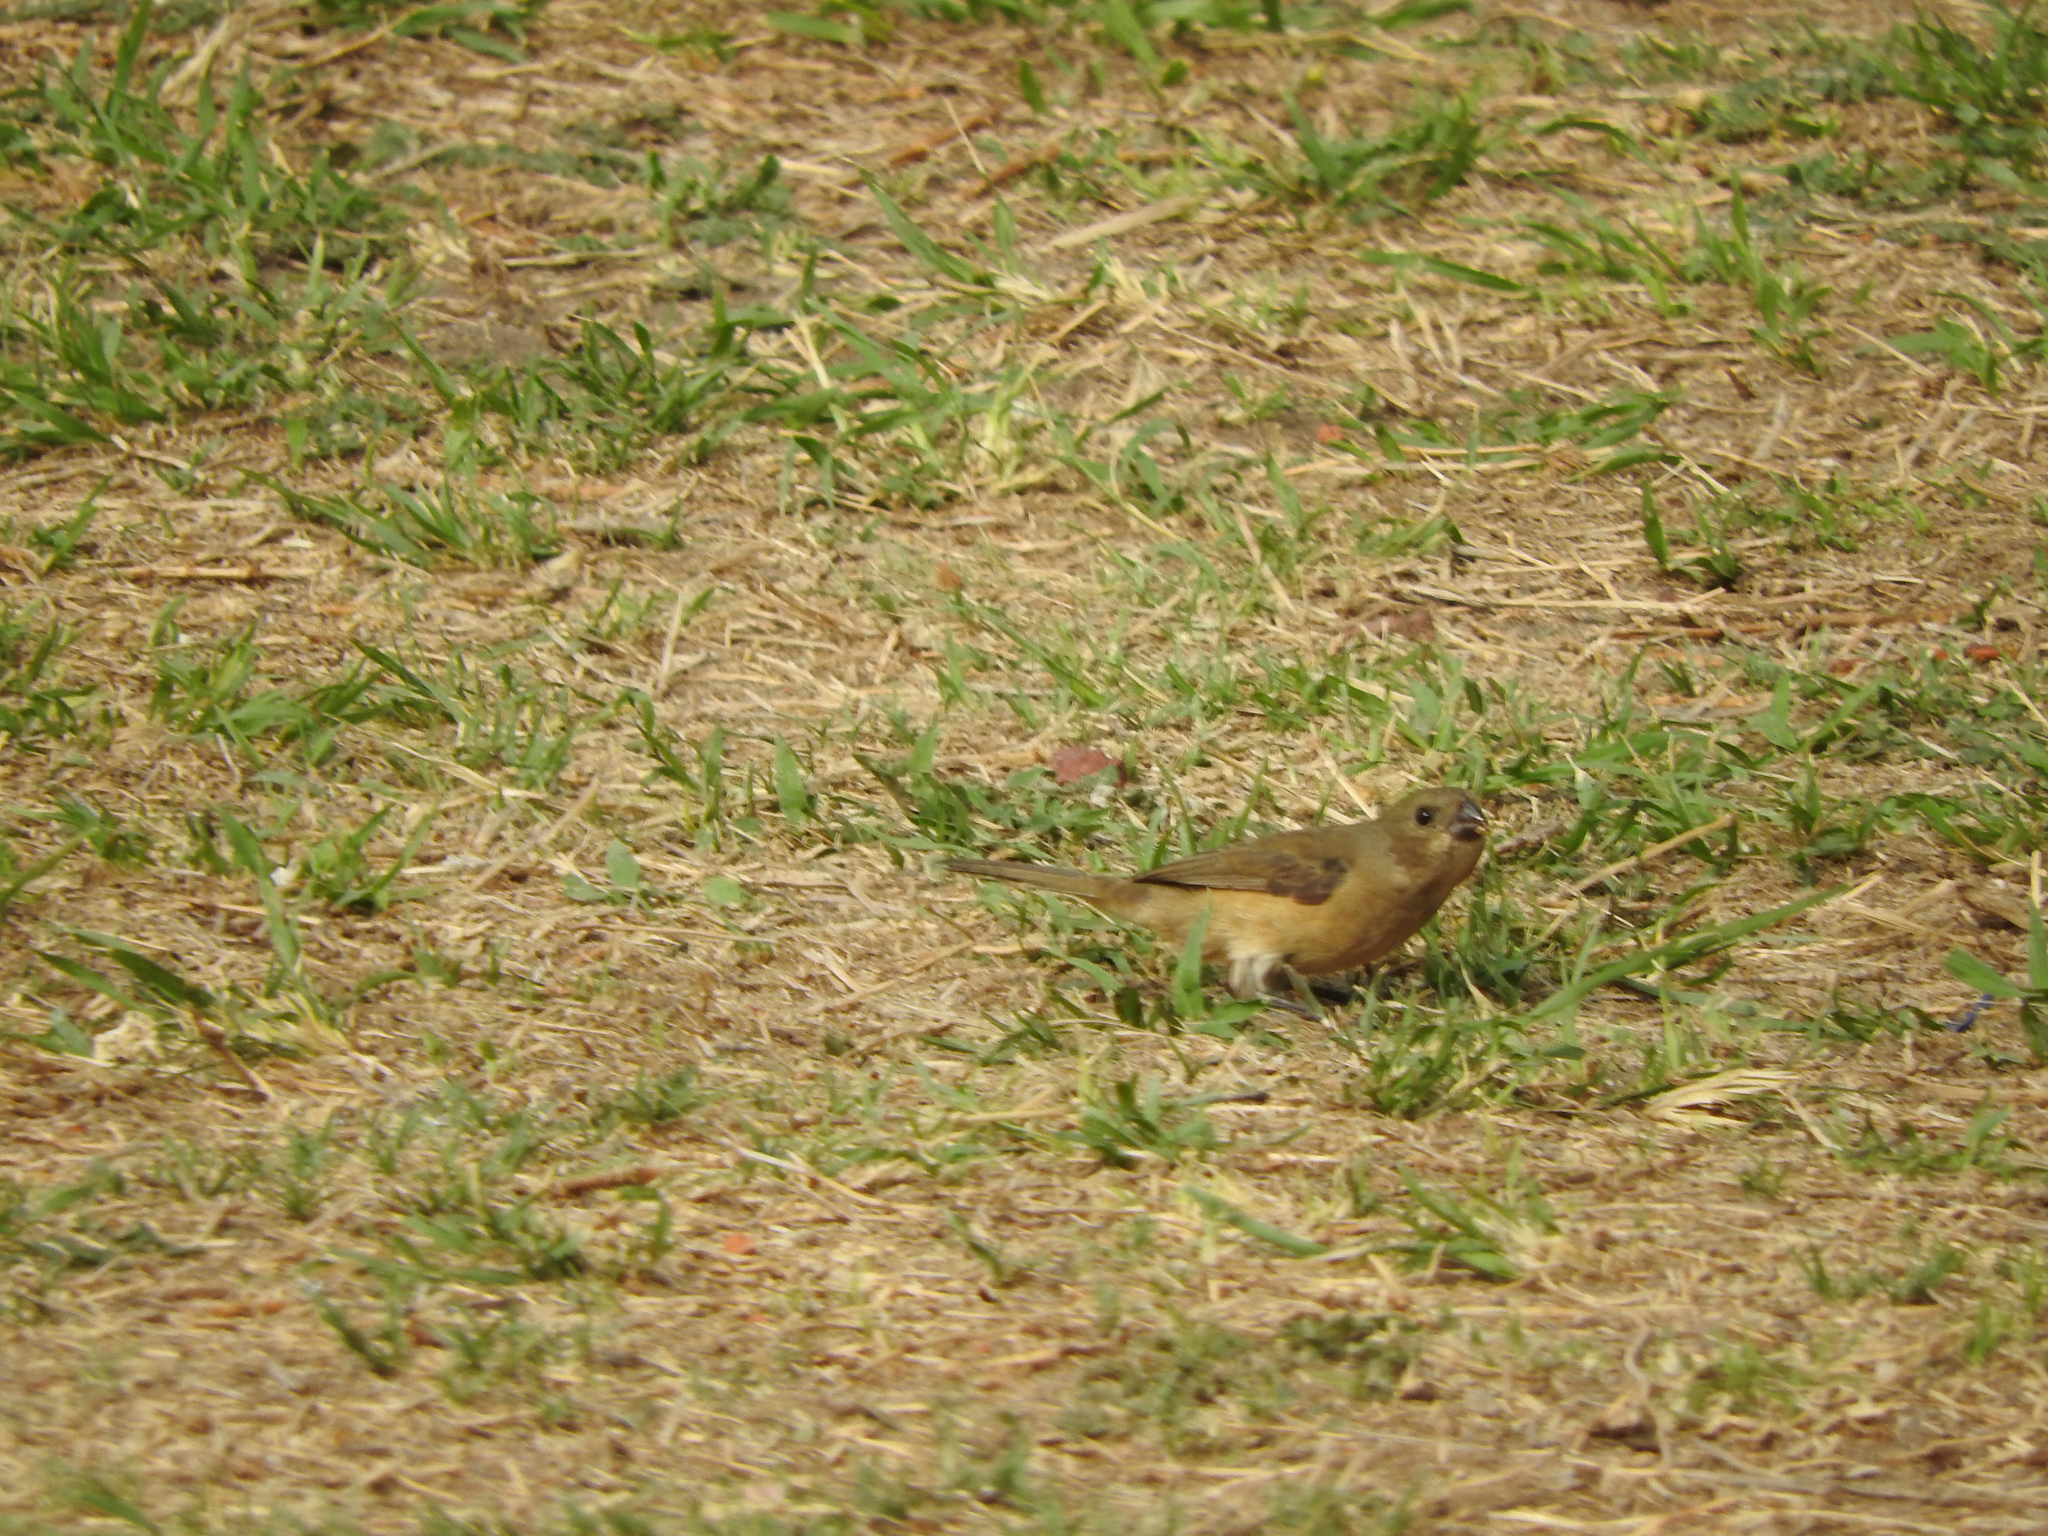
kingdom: Animalia
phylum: Chordata
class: Aves
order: Passeriformes
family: Thraupidae
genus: Sporophila
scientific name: Sporophila torqueola
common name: White-collared seedeater
